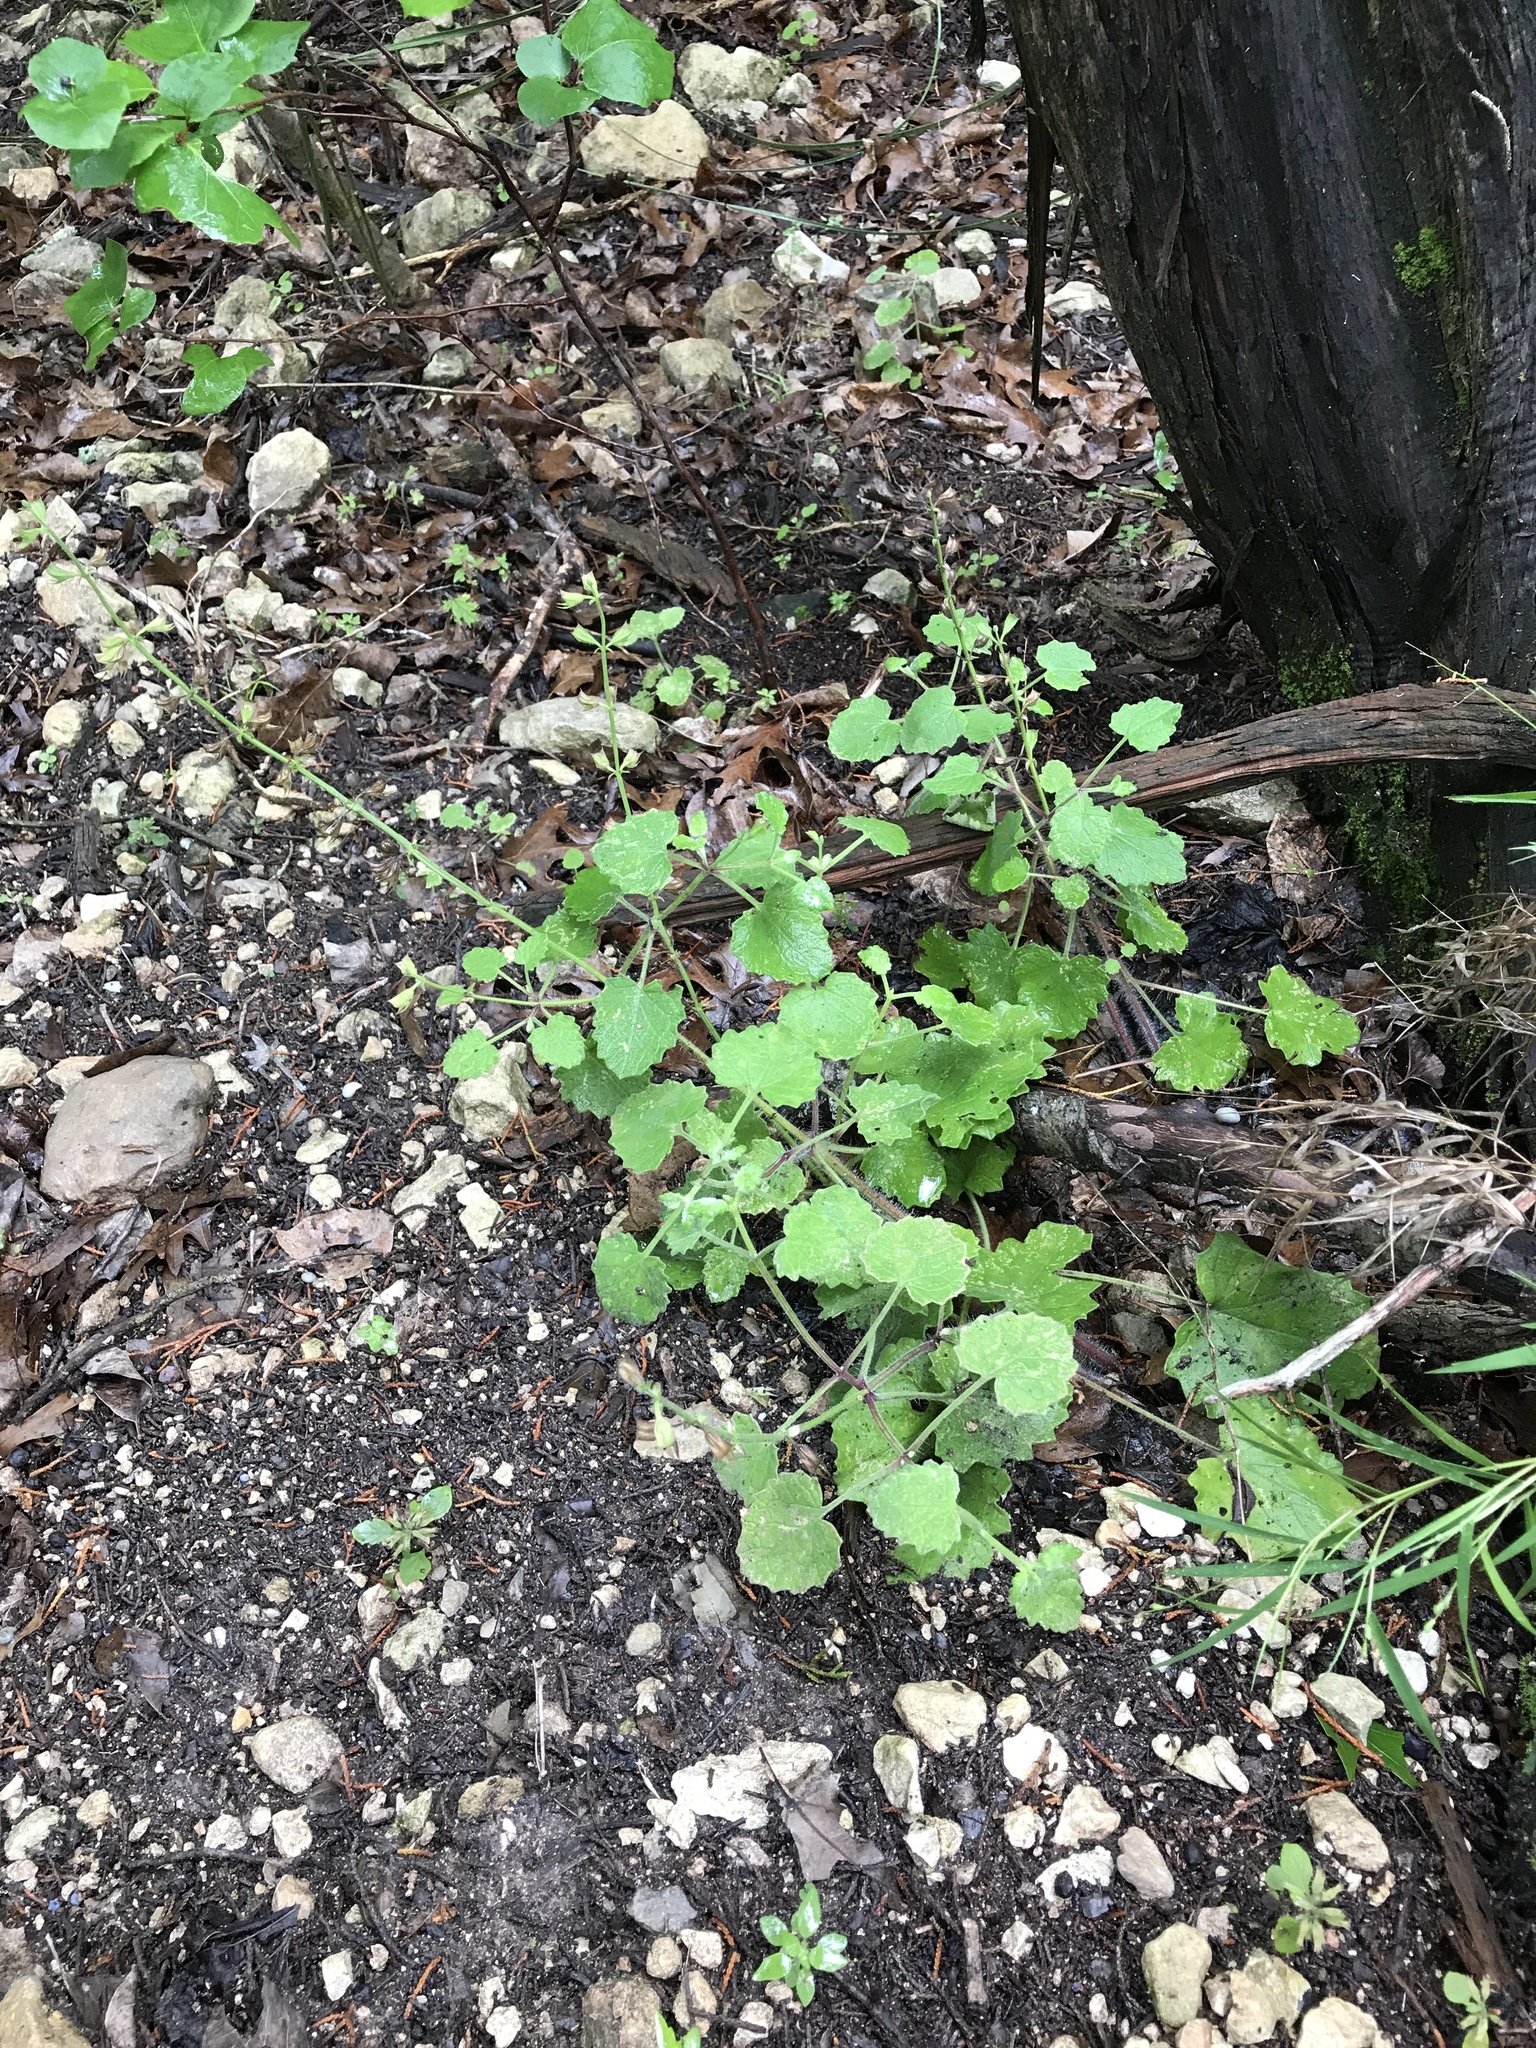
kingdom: Plantae
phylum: Tracheophyta
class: Magnoliopsida
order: Lamiales
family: Lamiaceae
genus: Salvia
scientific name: Salvia roemeriana
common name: Cedar sage
